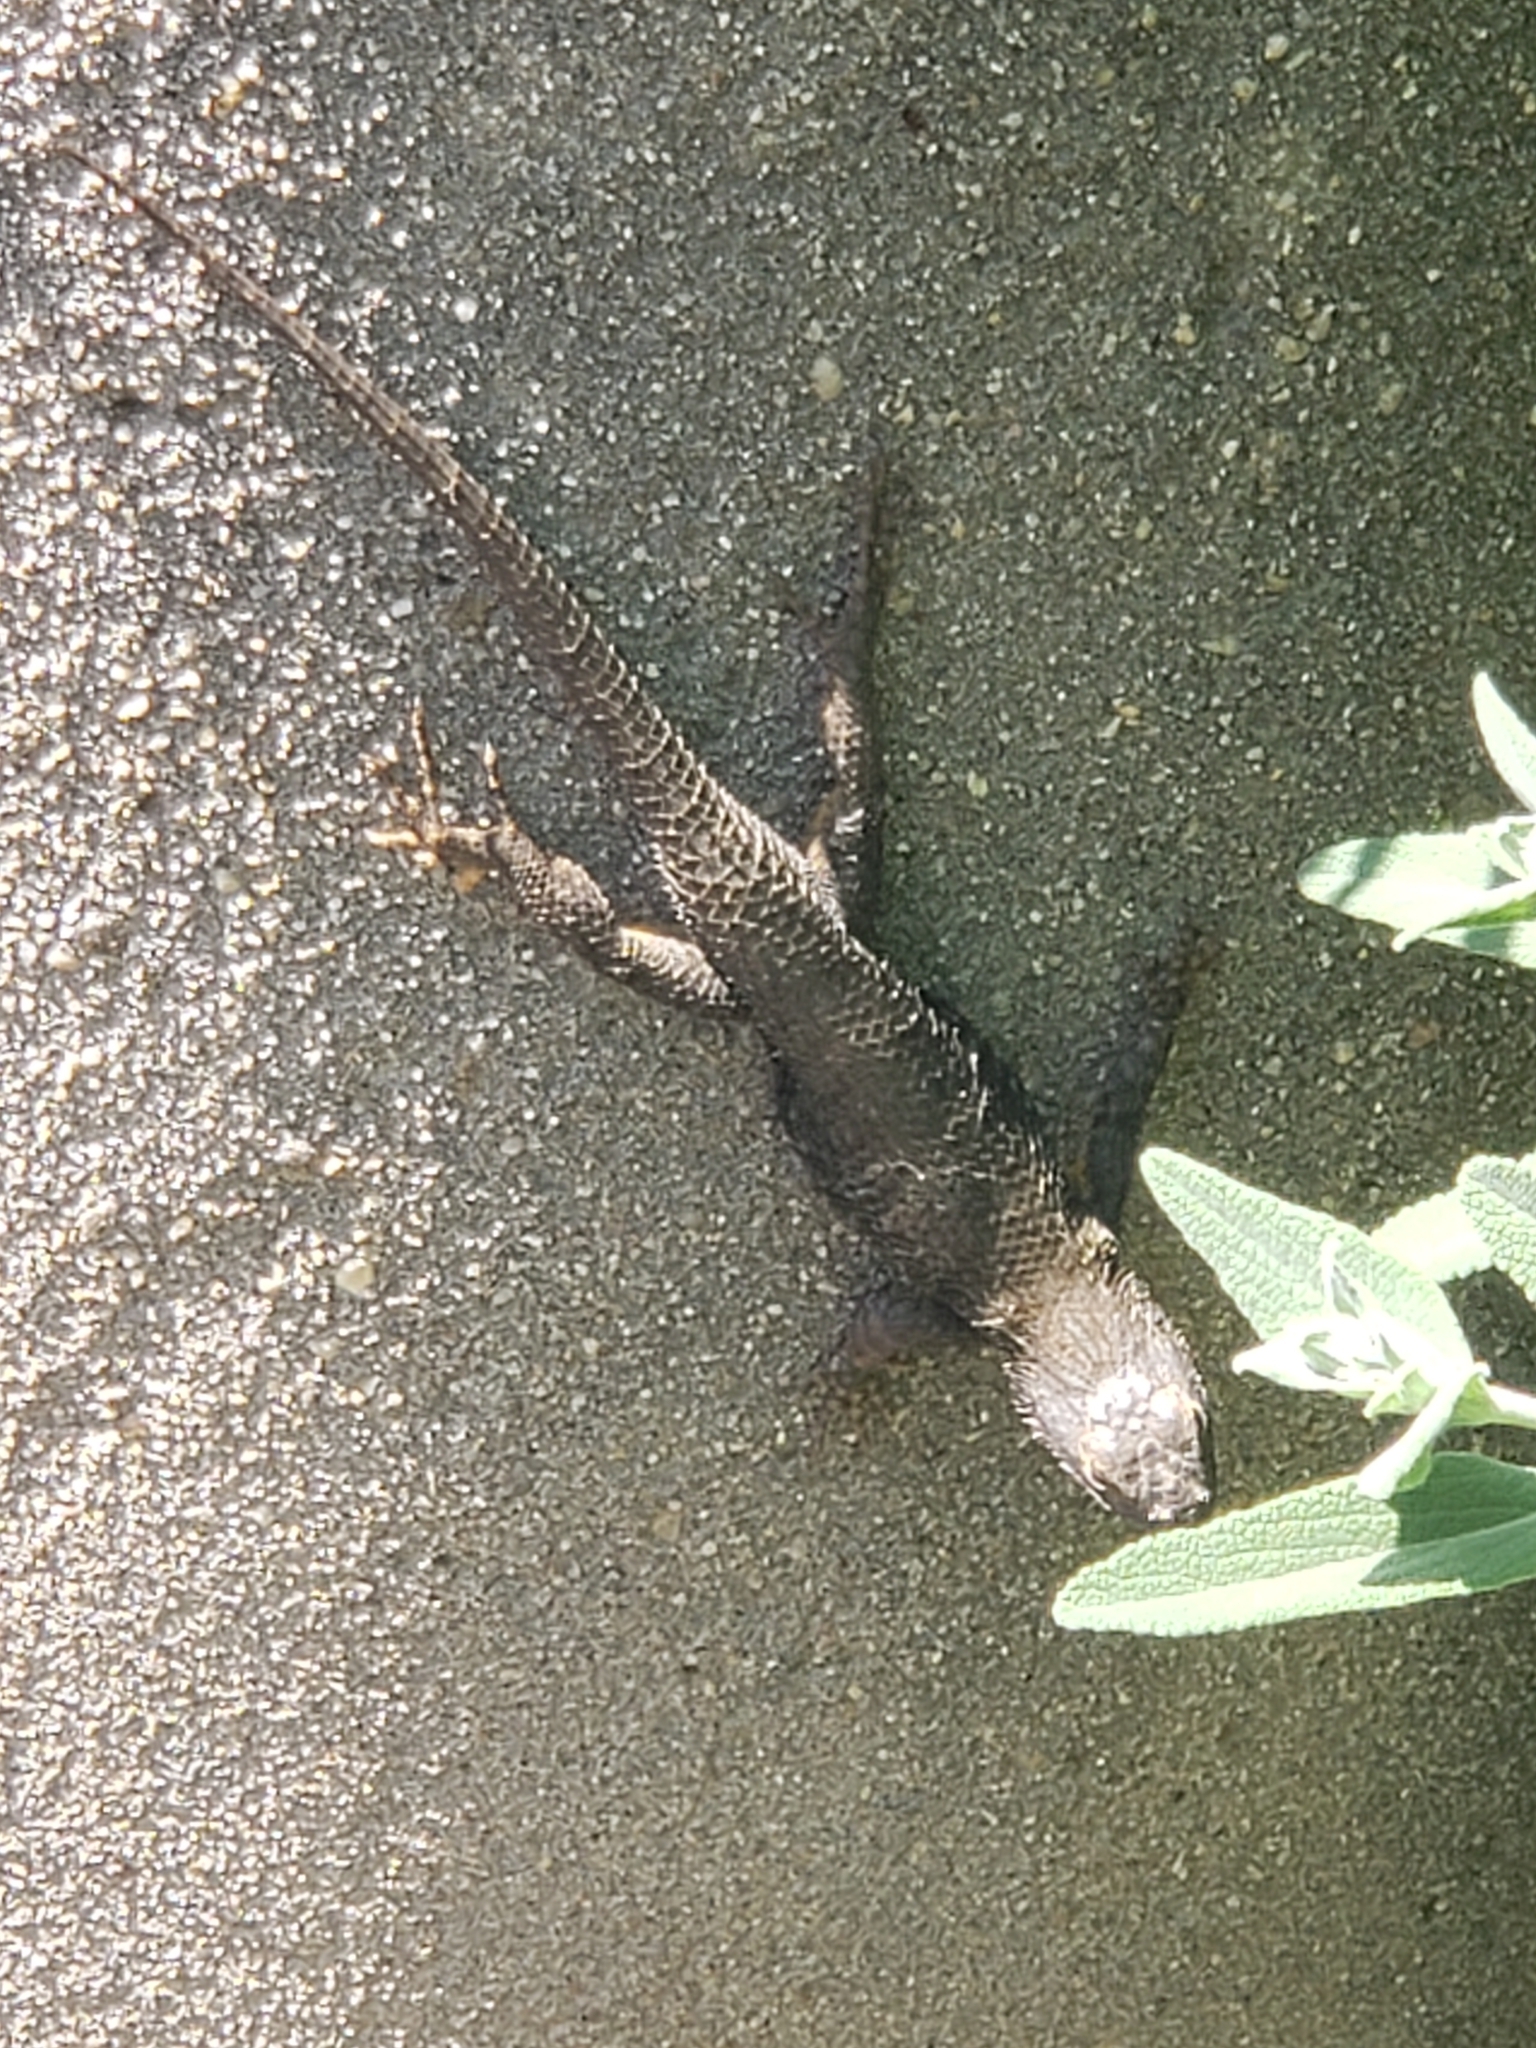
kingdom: Animalia
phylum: Chordata
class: Squamata
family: Phrynosomatidae
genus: Sceloporus
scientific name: Sceloporus occidentalis
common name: Western fence lizard
